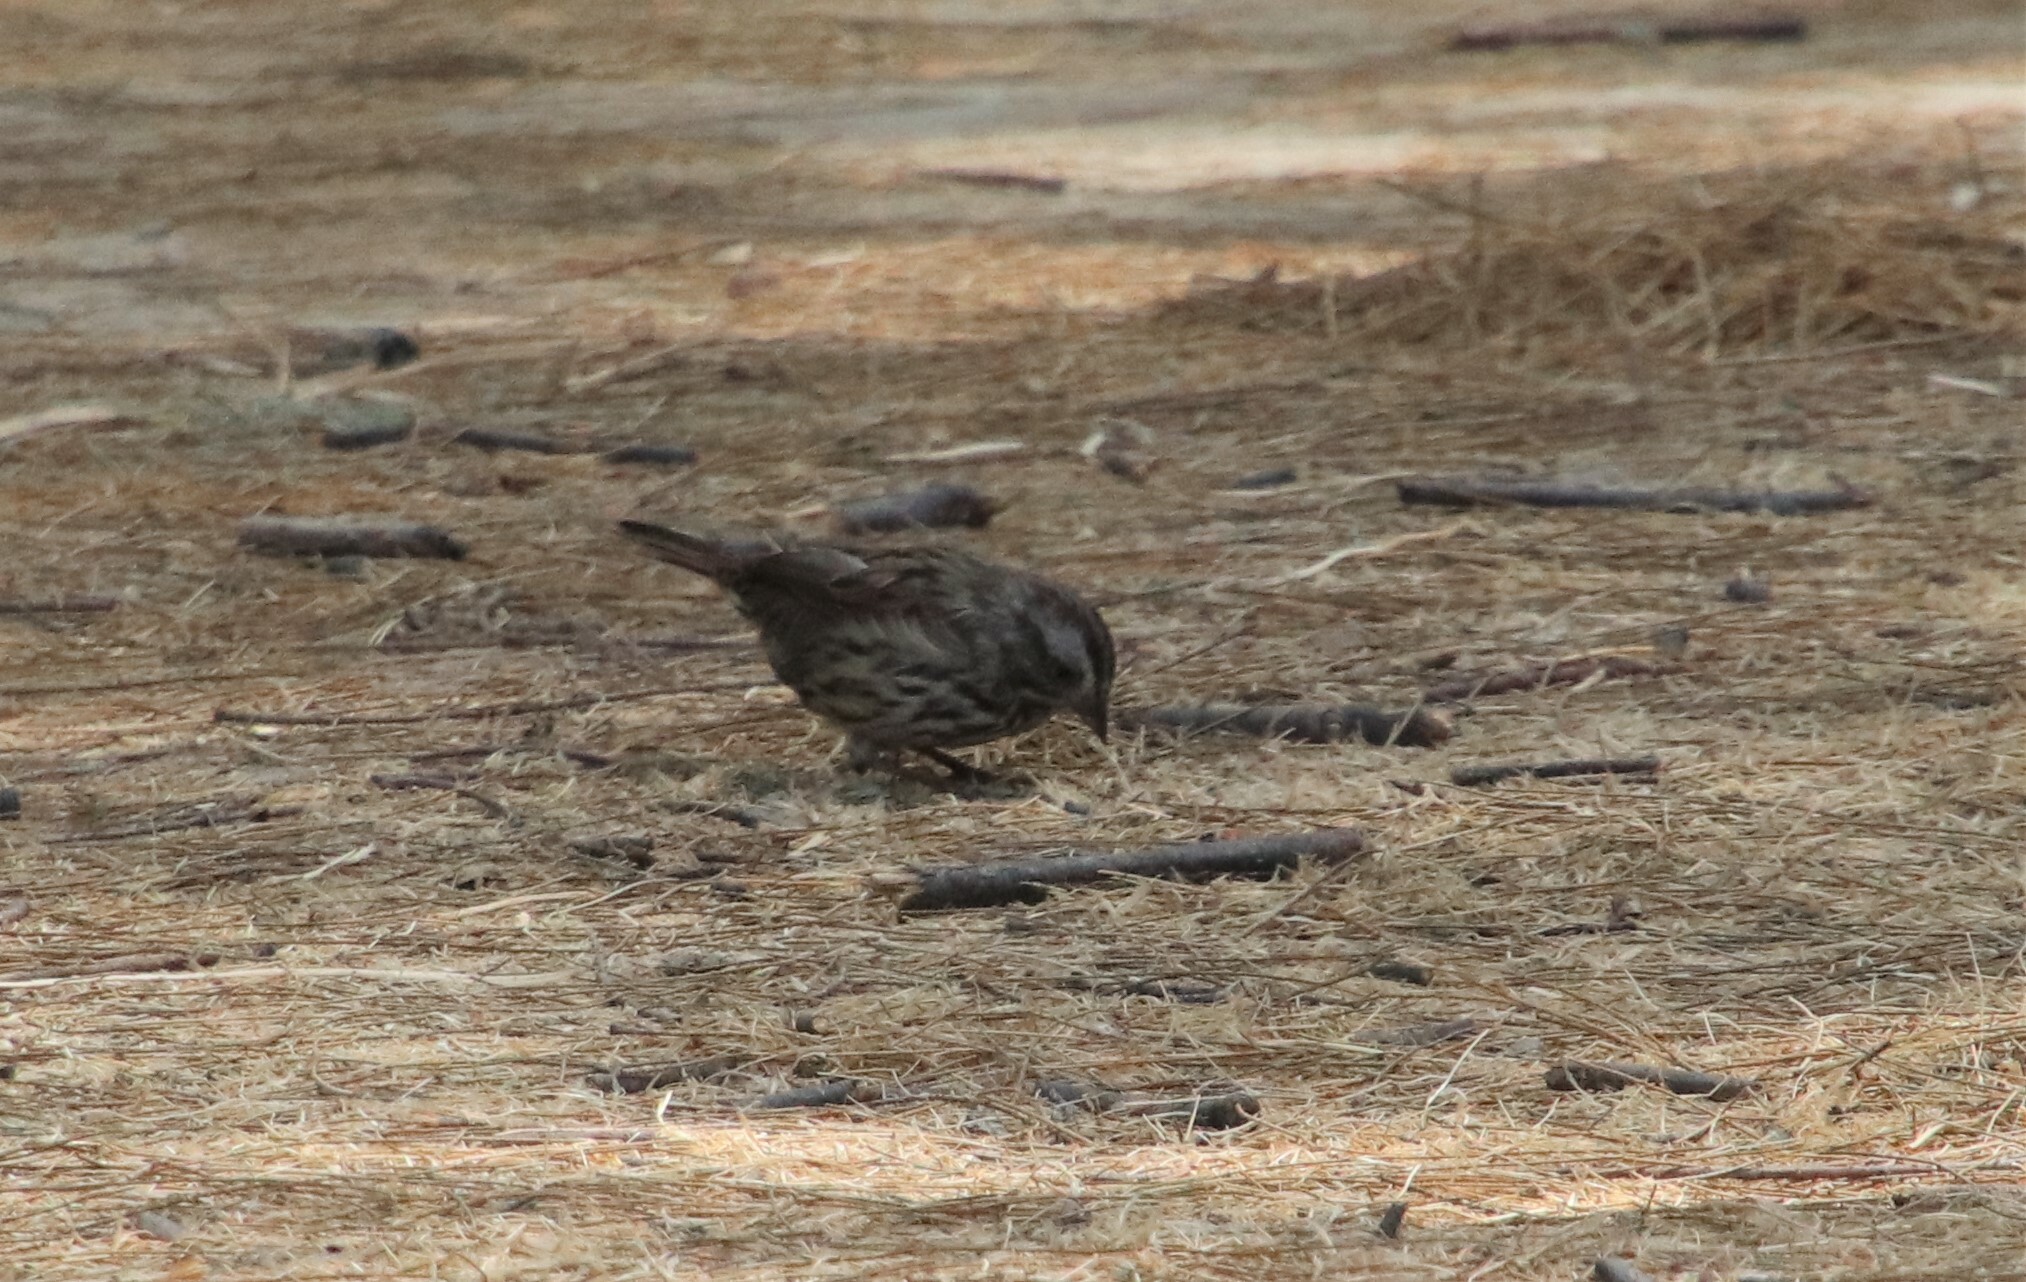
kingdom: Animalia
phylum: Chordata
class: Aves
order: Passeriformes
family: Passerellidae
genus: Melospiza
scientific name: Melospiza melodia
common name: Song sparrow
